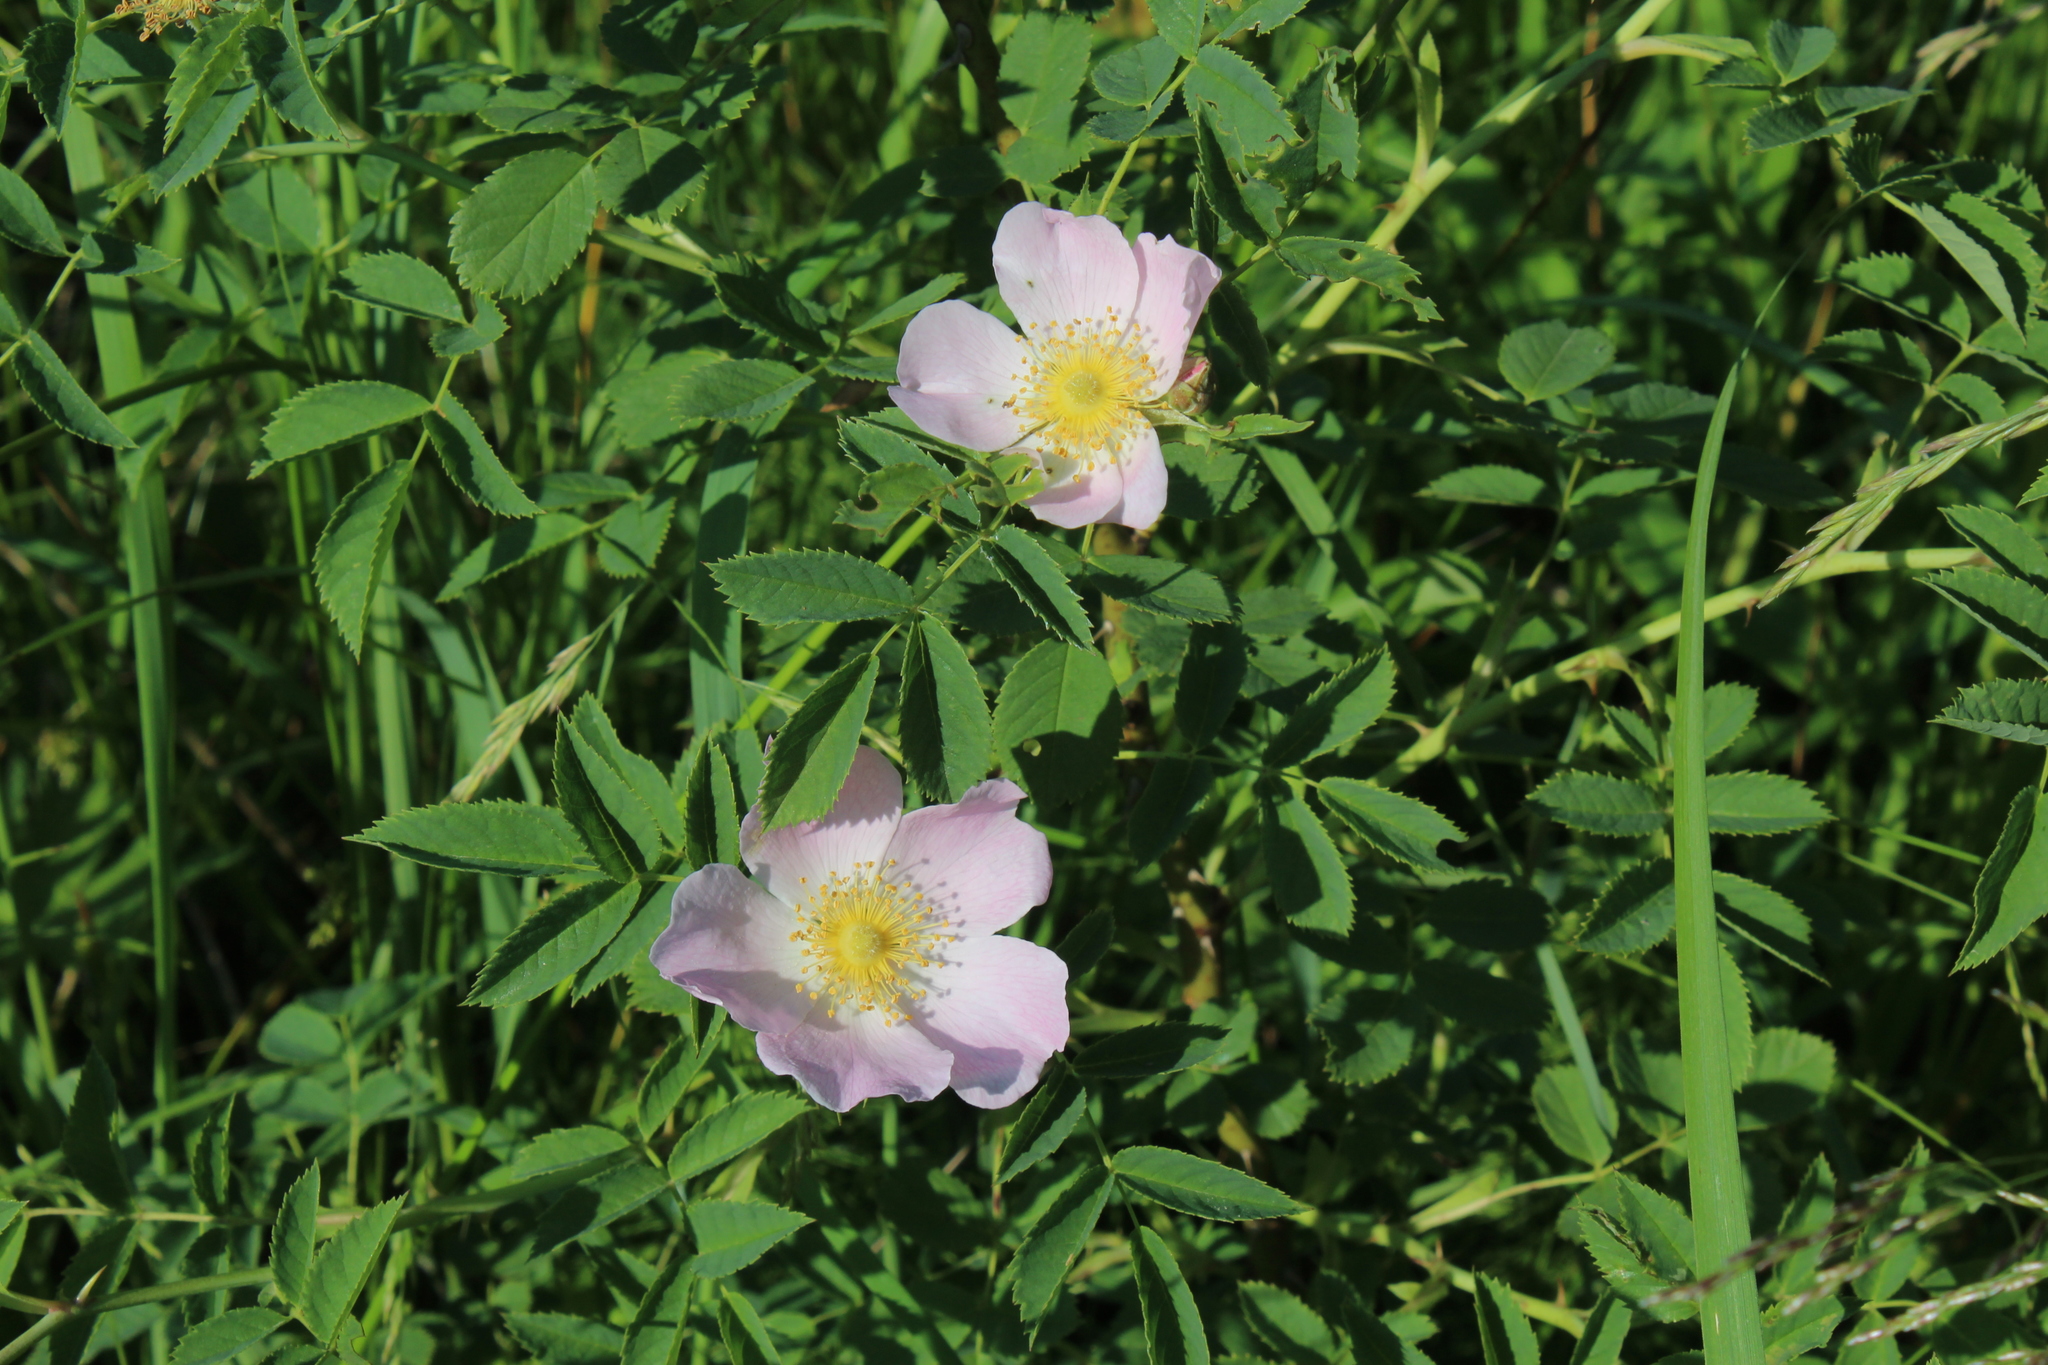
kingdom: Plantae
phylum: Tracheophyta
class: Magnoliopsida
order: Rosales
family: Rosaceae
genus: Rosa
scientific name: Rosa majalis
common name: Cinnamon rose
